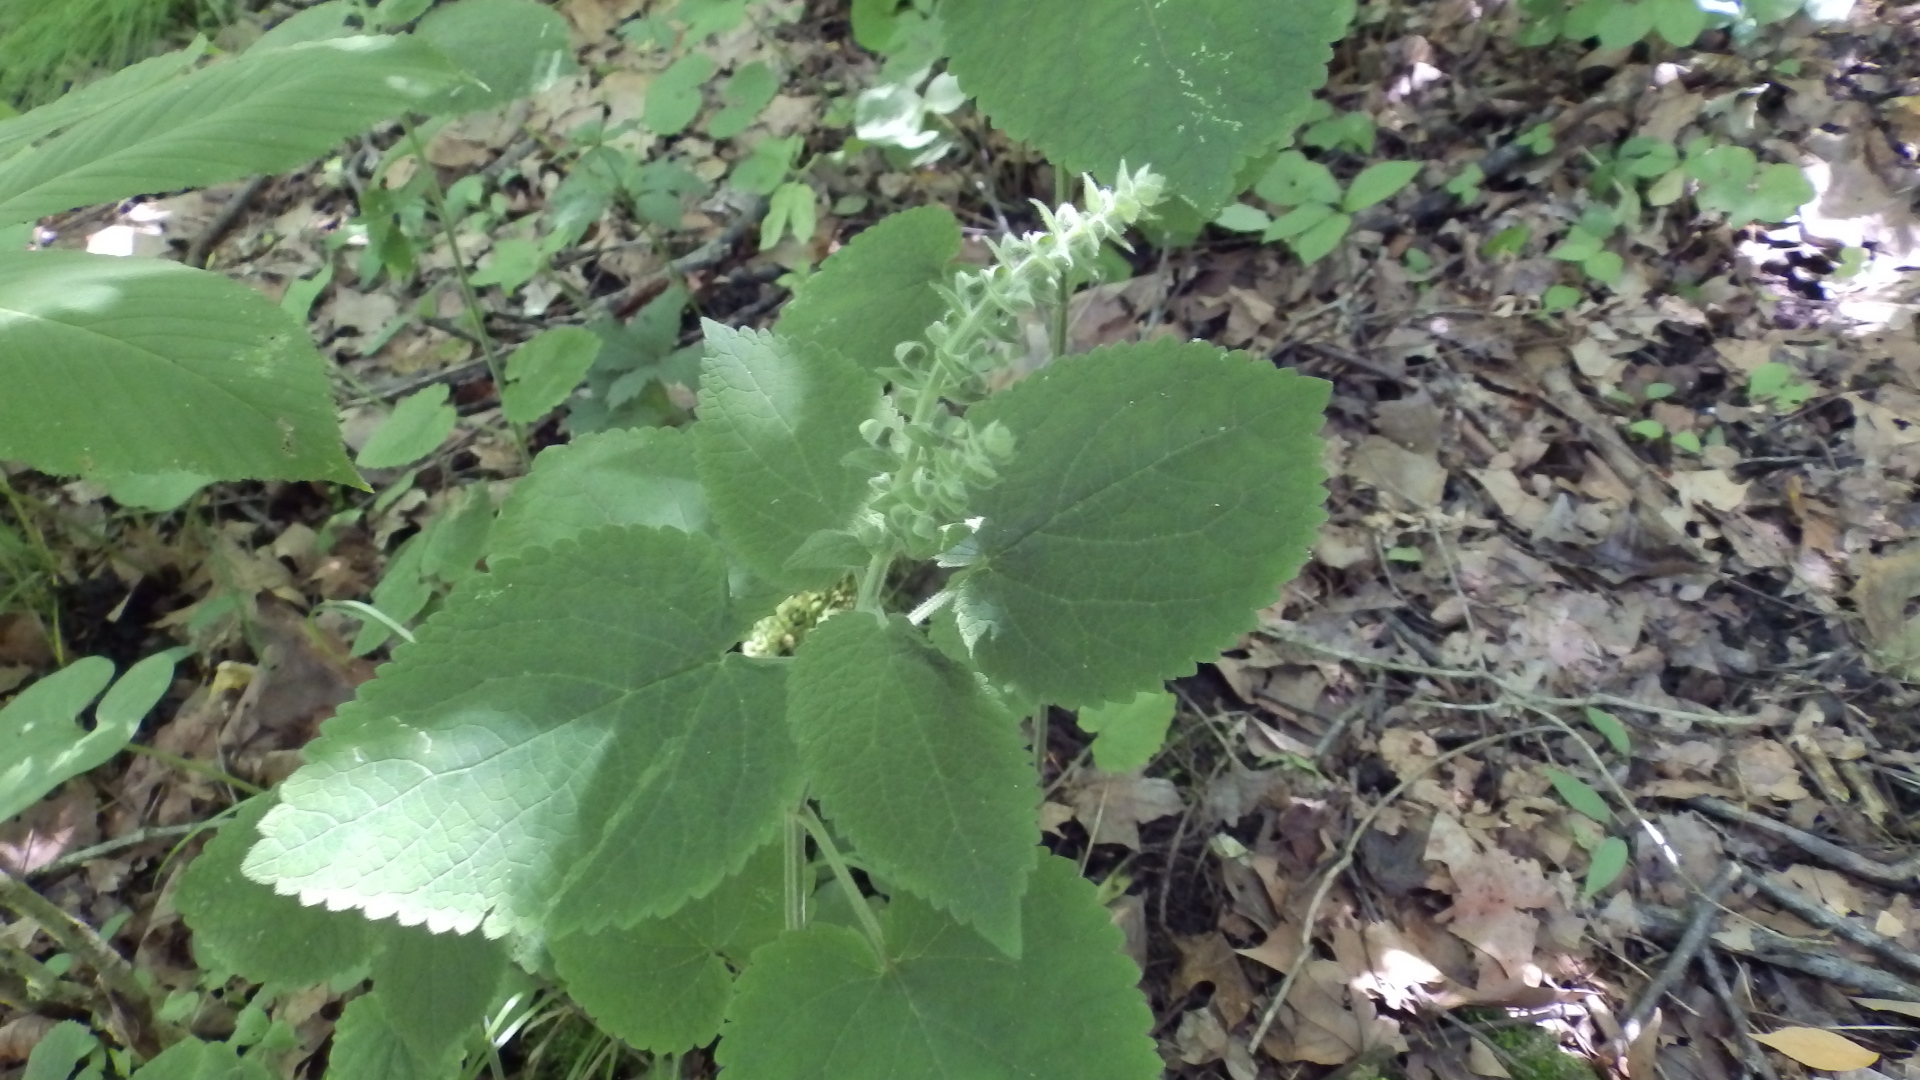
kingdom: Plantae
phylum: Tracheophyta
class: Magnoliopsida
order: Lamiales
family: Lamiaceae
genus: Scutellaria
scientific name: Scutellaria ovata
